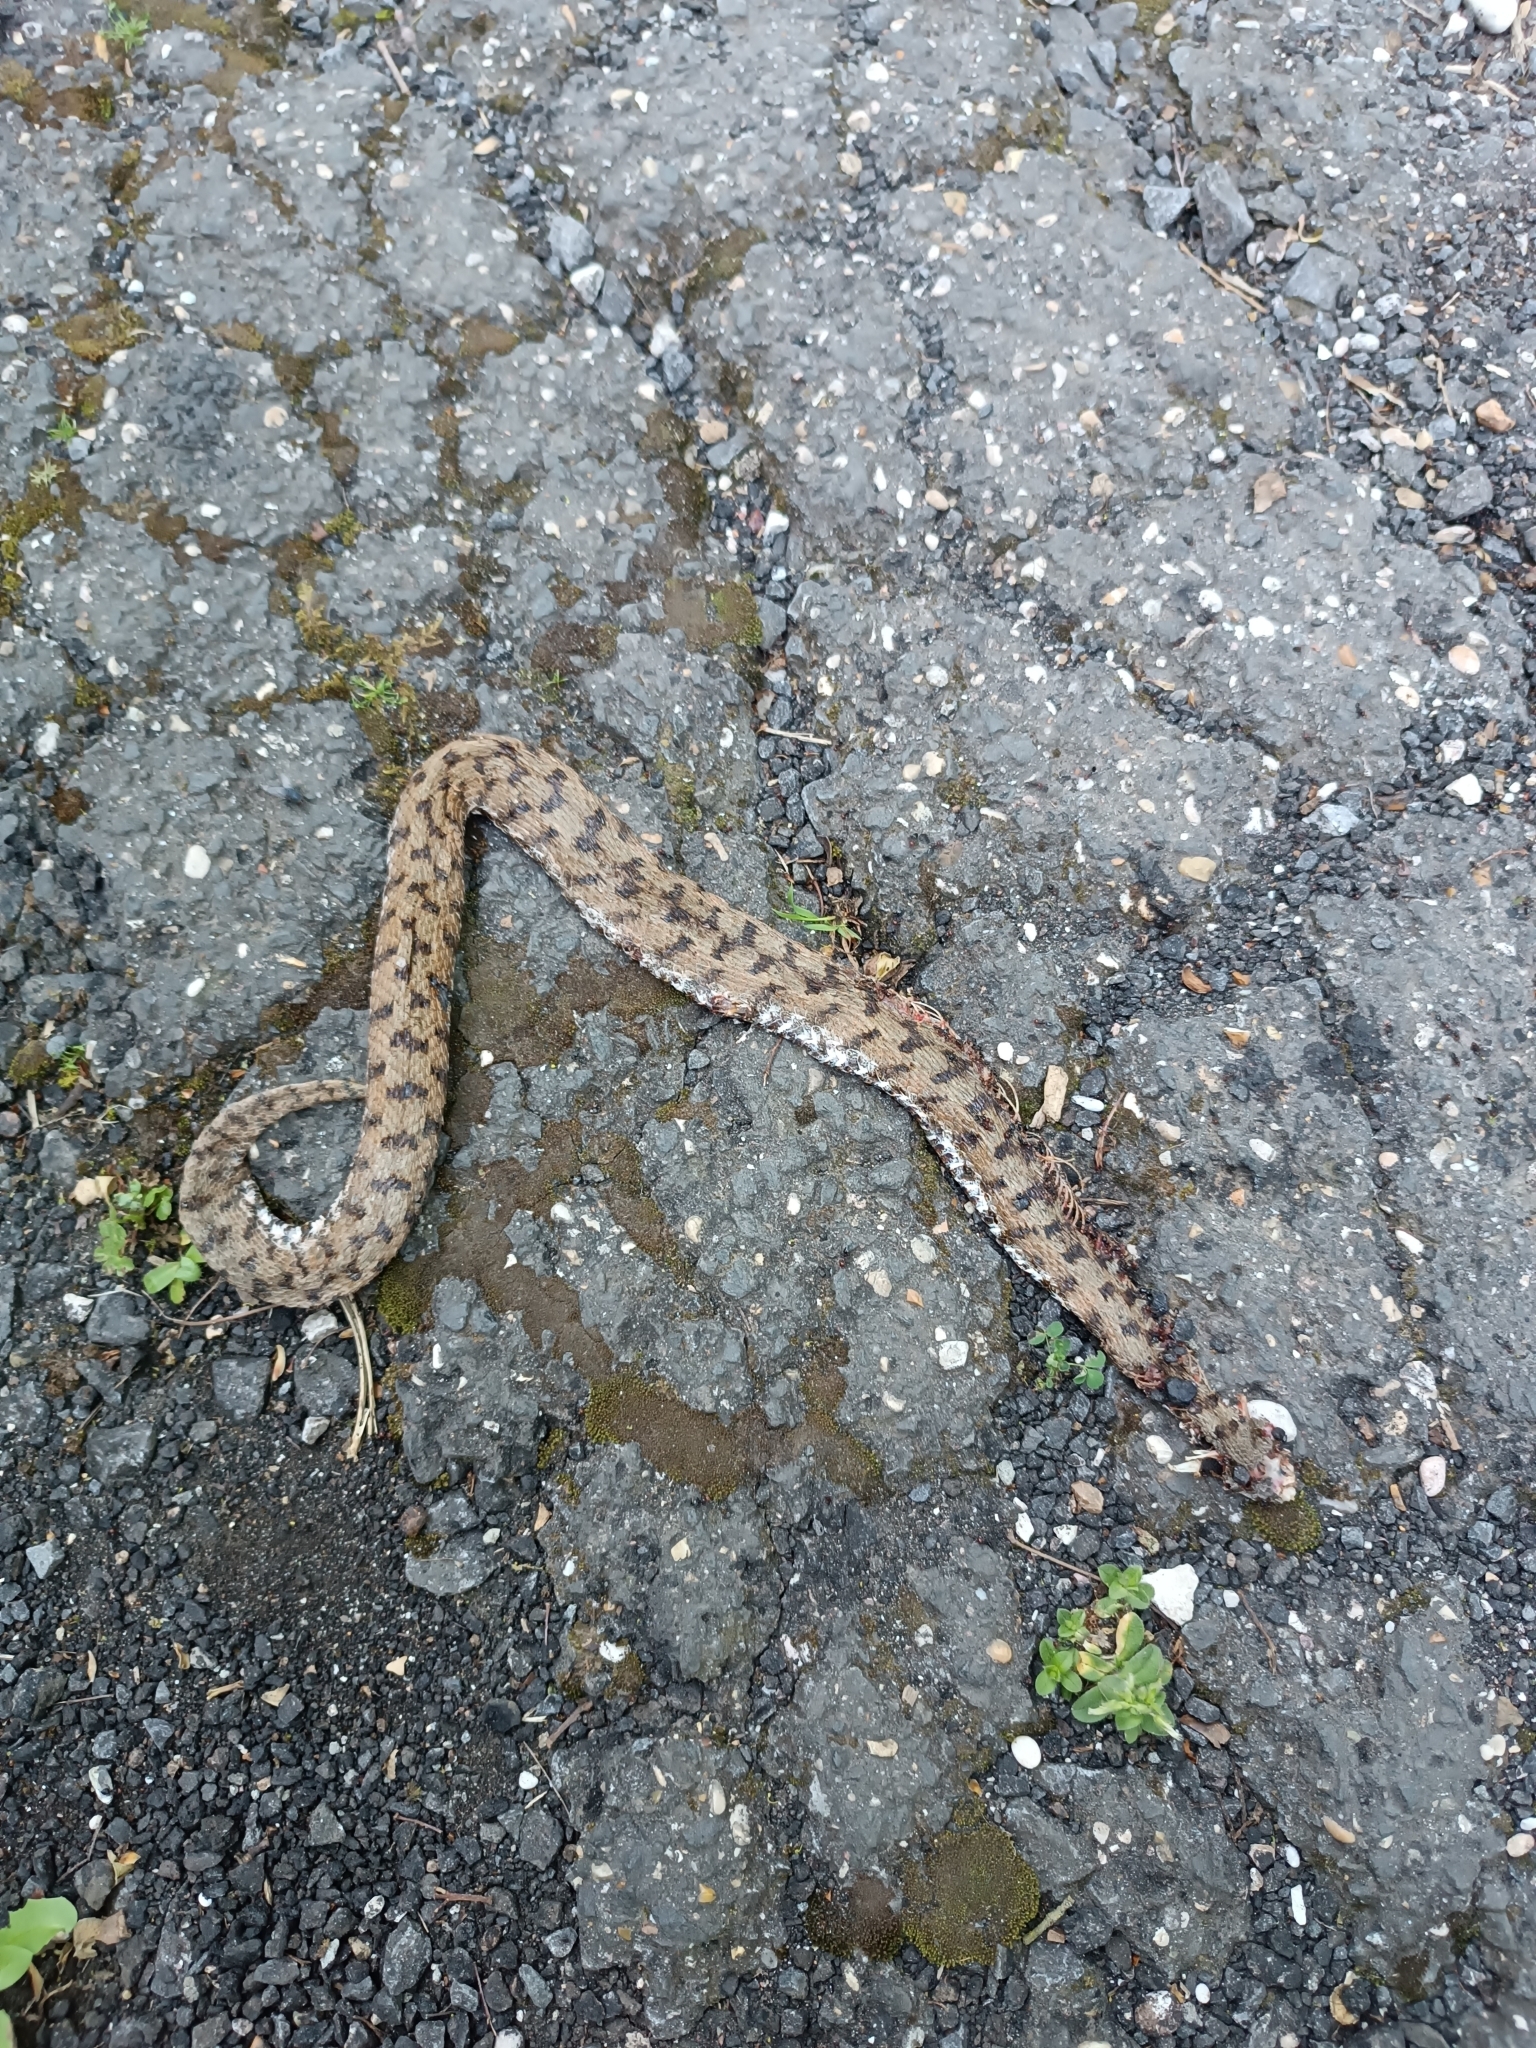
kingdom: Animalia
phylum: Chordata
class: Squamata
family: Viperidae
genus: Vipera
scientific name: Vipera aspis
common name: Asp viper
